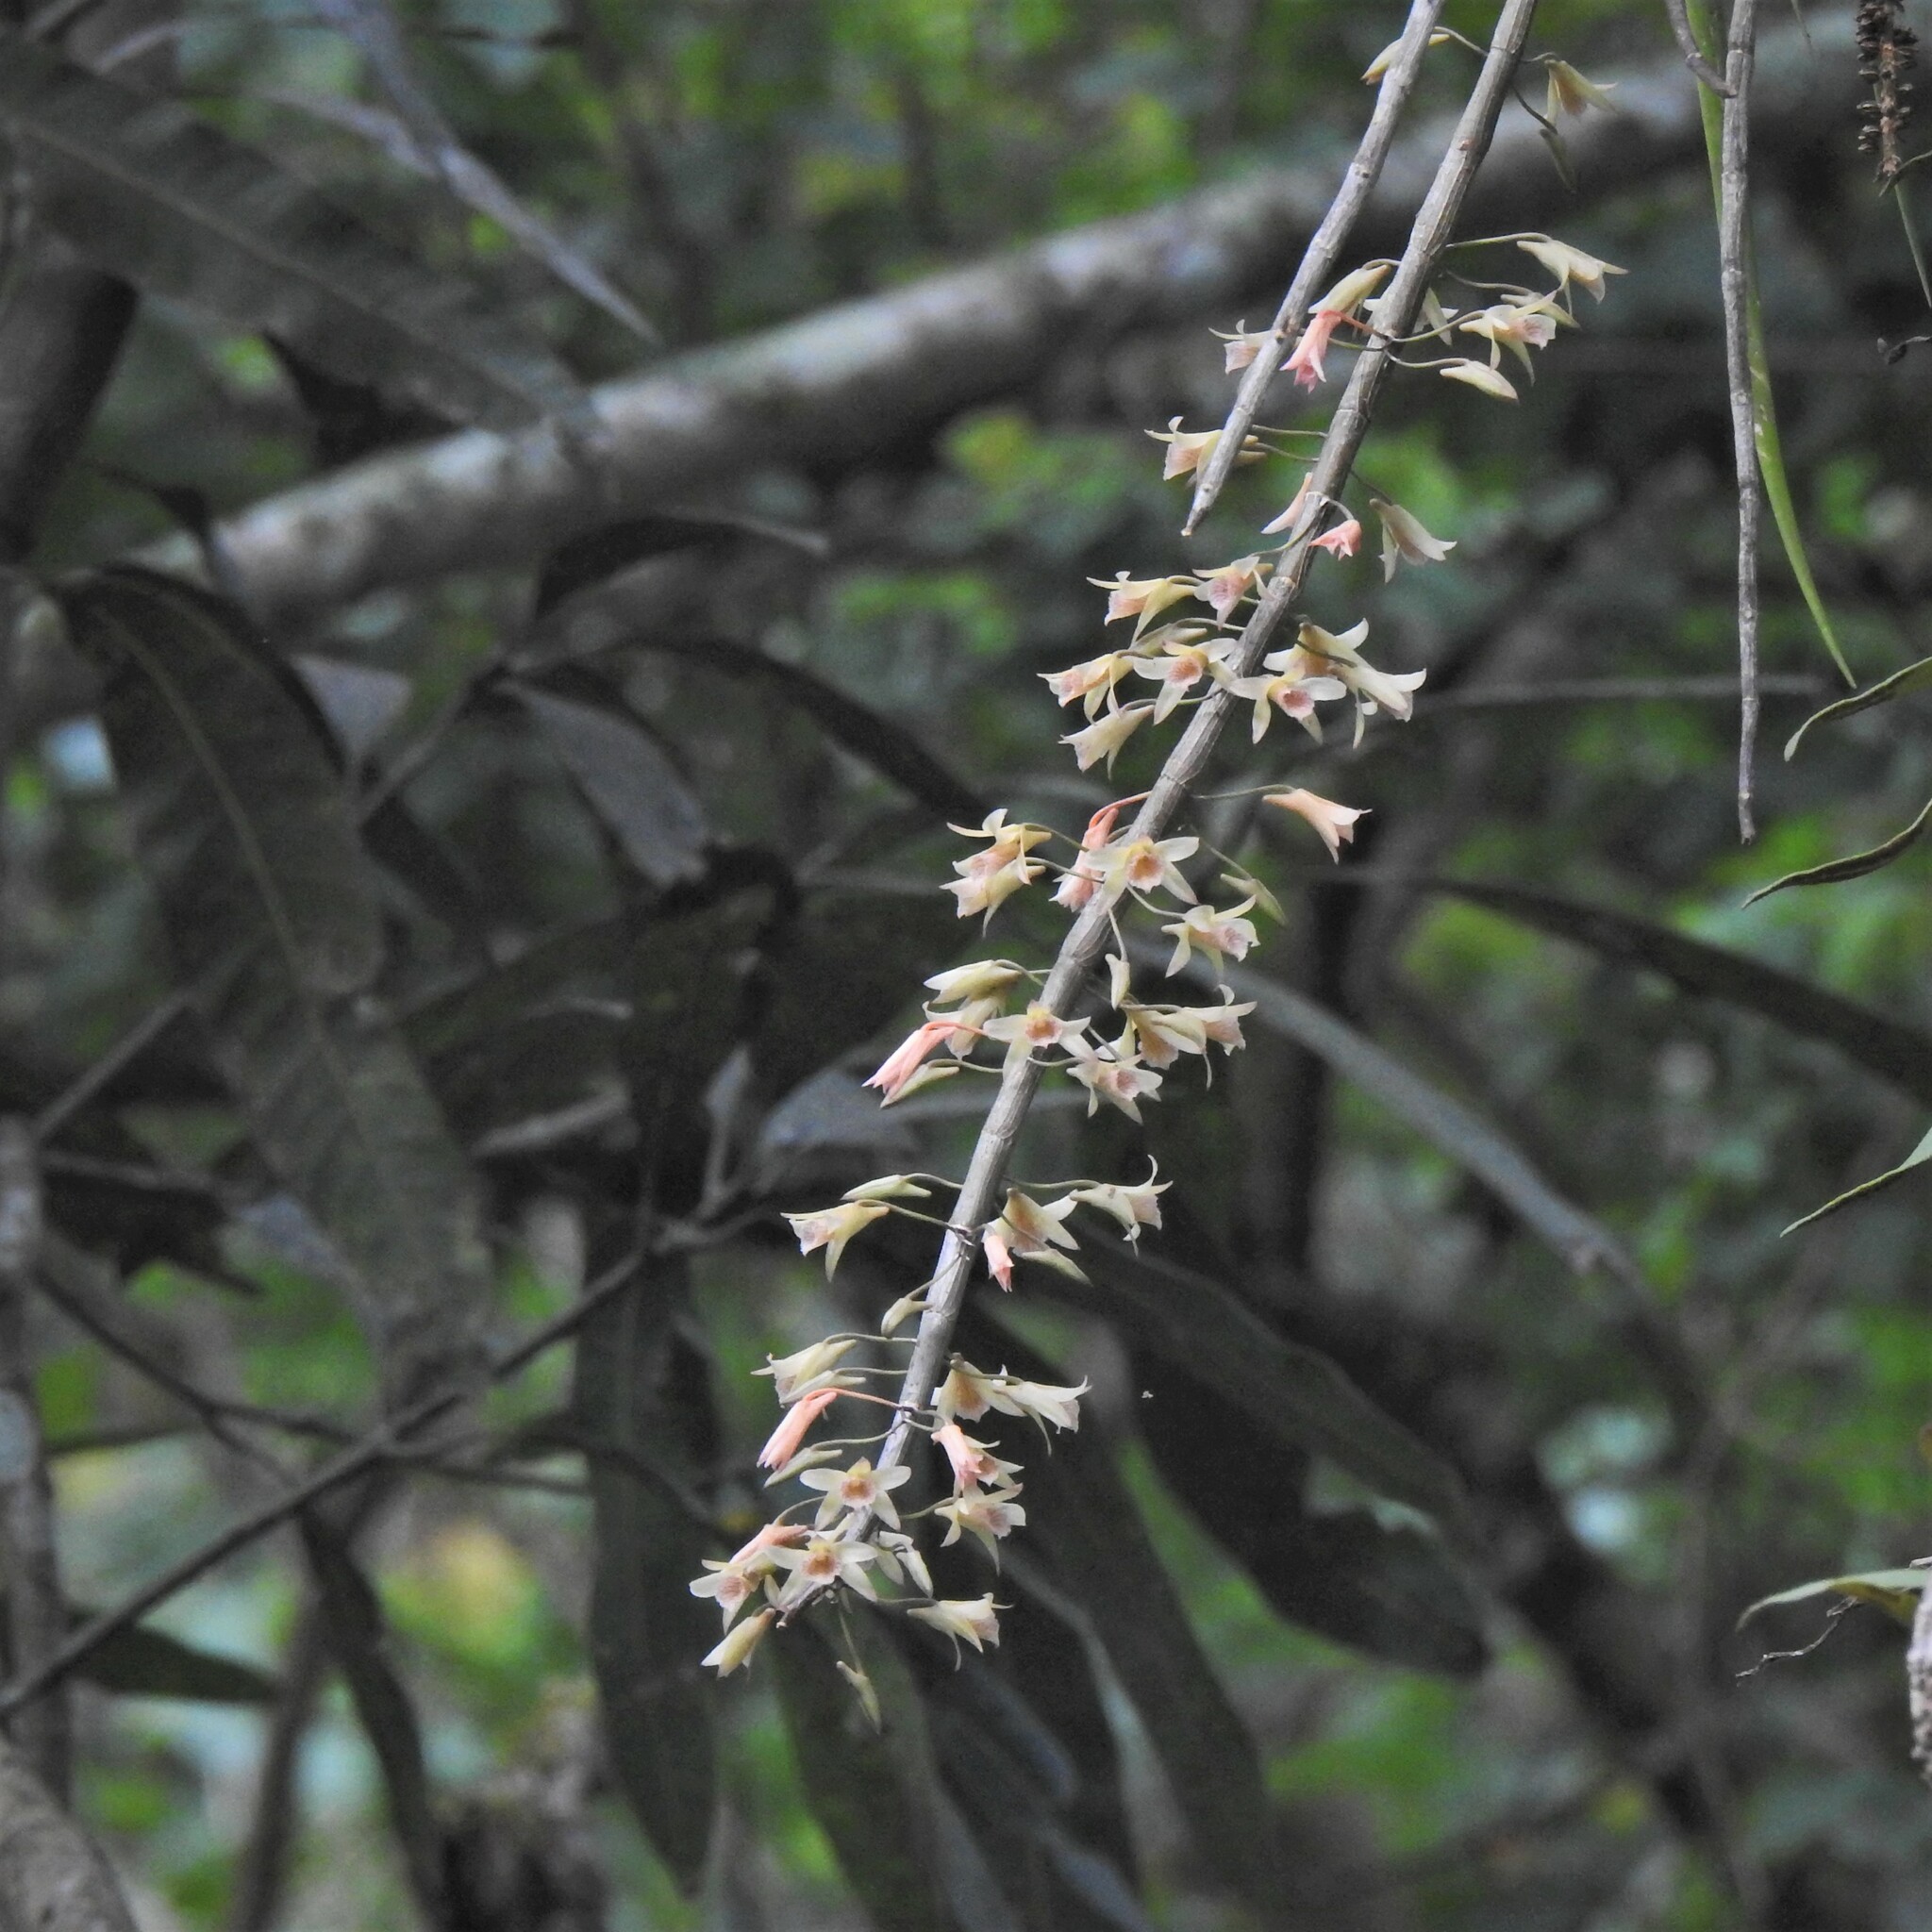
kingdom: Plantae
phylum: Tracheophyta
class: Liliopsida
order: Asparagales
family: Orchidaceae
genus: Dendrobium
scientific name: Dendrobium macrostachyum
